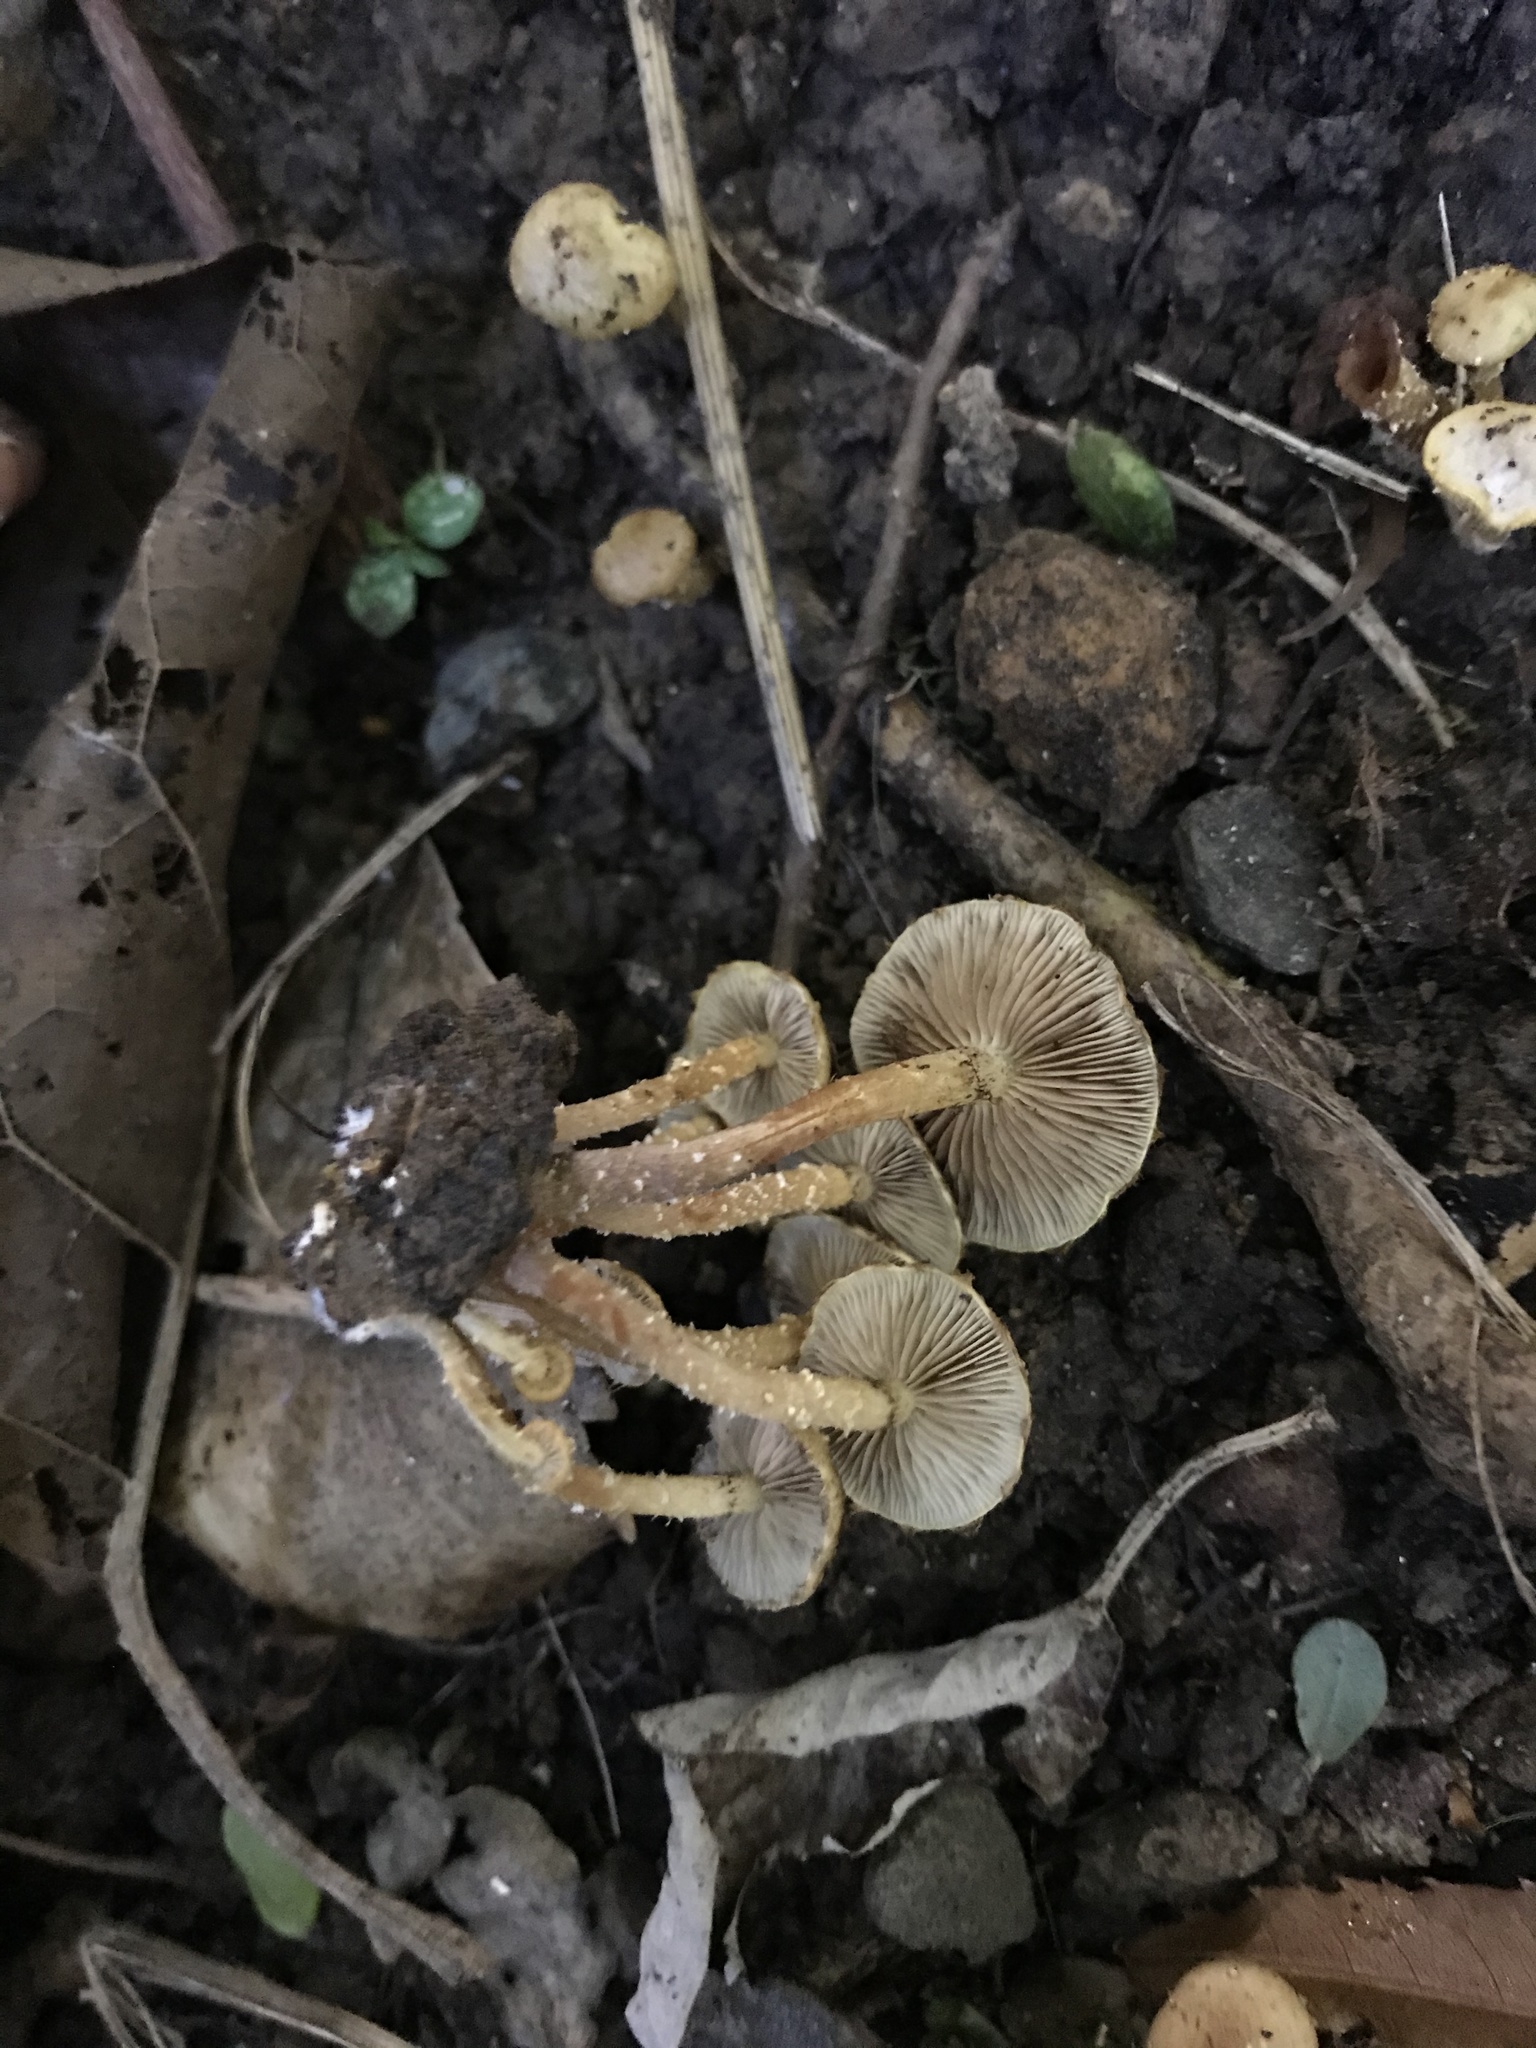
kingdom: Fungi
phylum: Basidiomycota
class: Agaricomycetes
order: Agaricales
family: Strophariaceae
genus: Pholiota
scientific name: Pholiota subflammans
